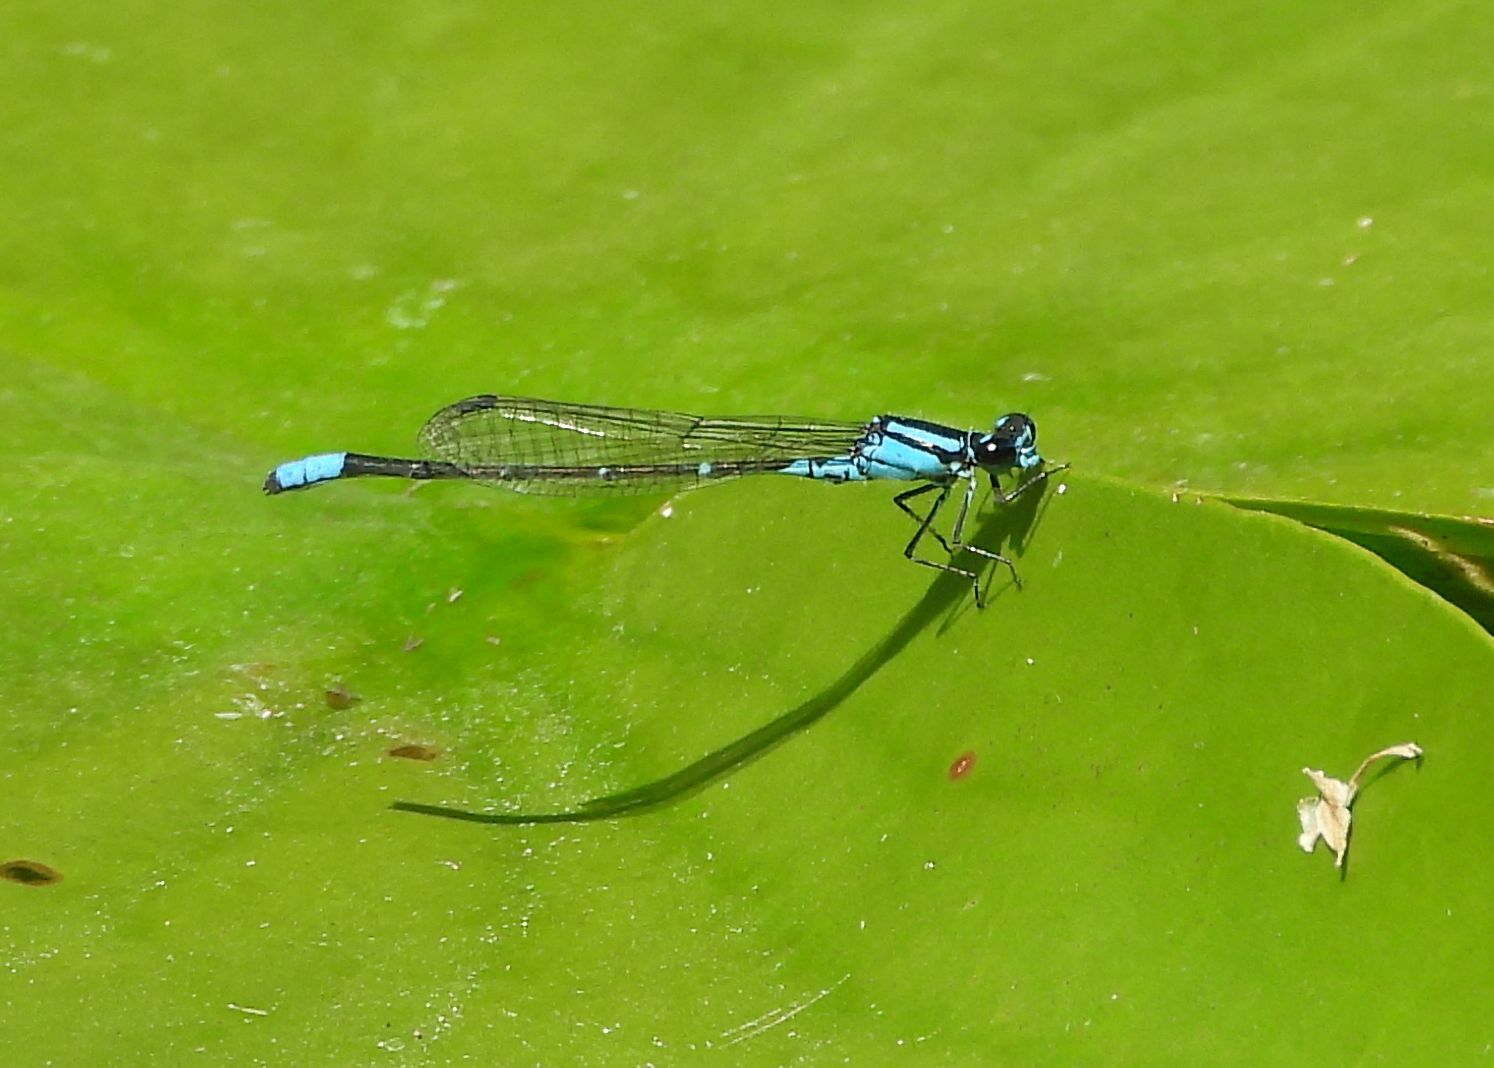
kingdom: Animalia
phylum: Arthropoda
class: Insecta
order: Odonata
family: Coenagrionidae
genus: Enallagma
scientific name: Enallagma geminatum
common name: Skimming bluet
